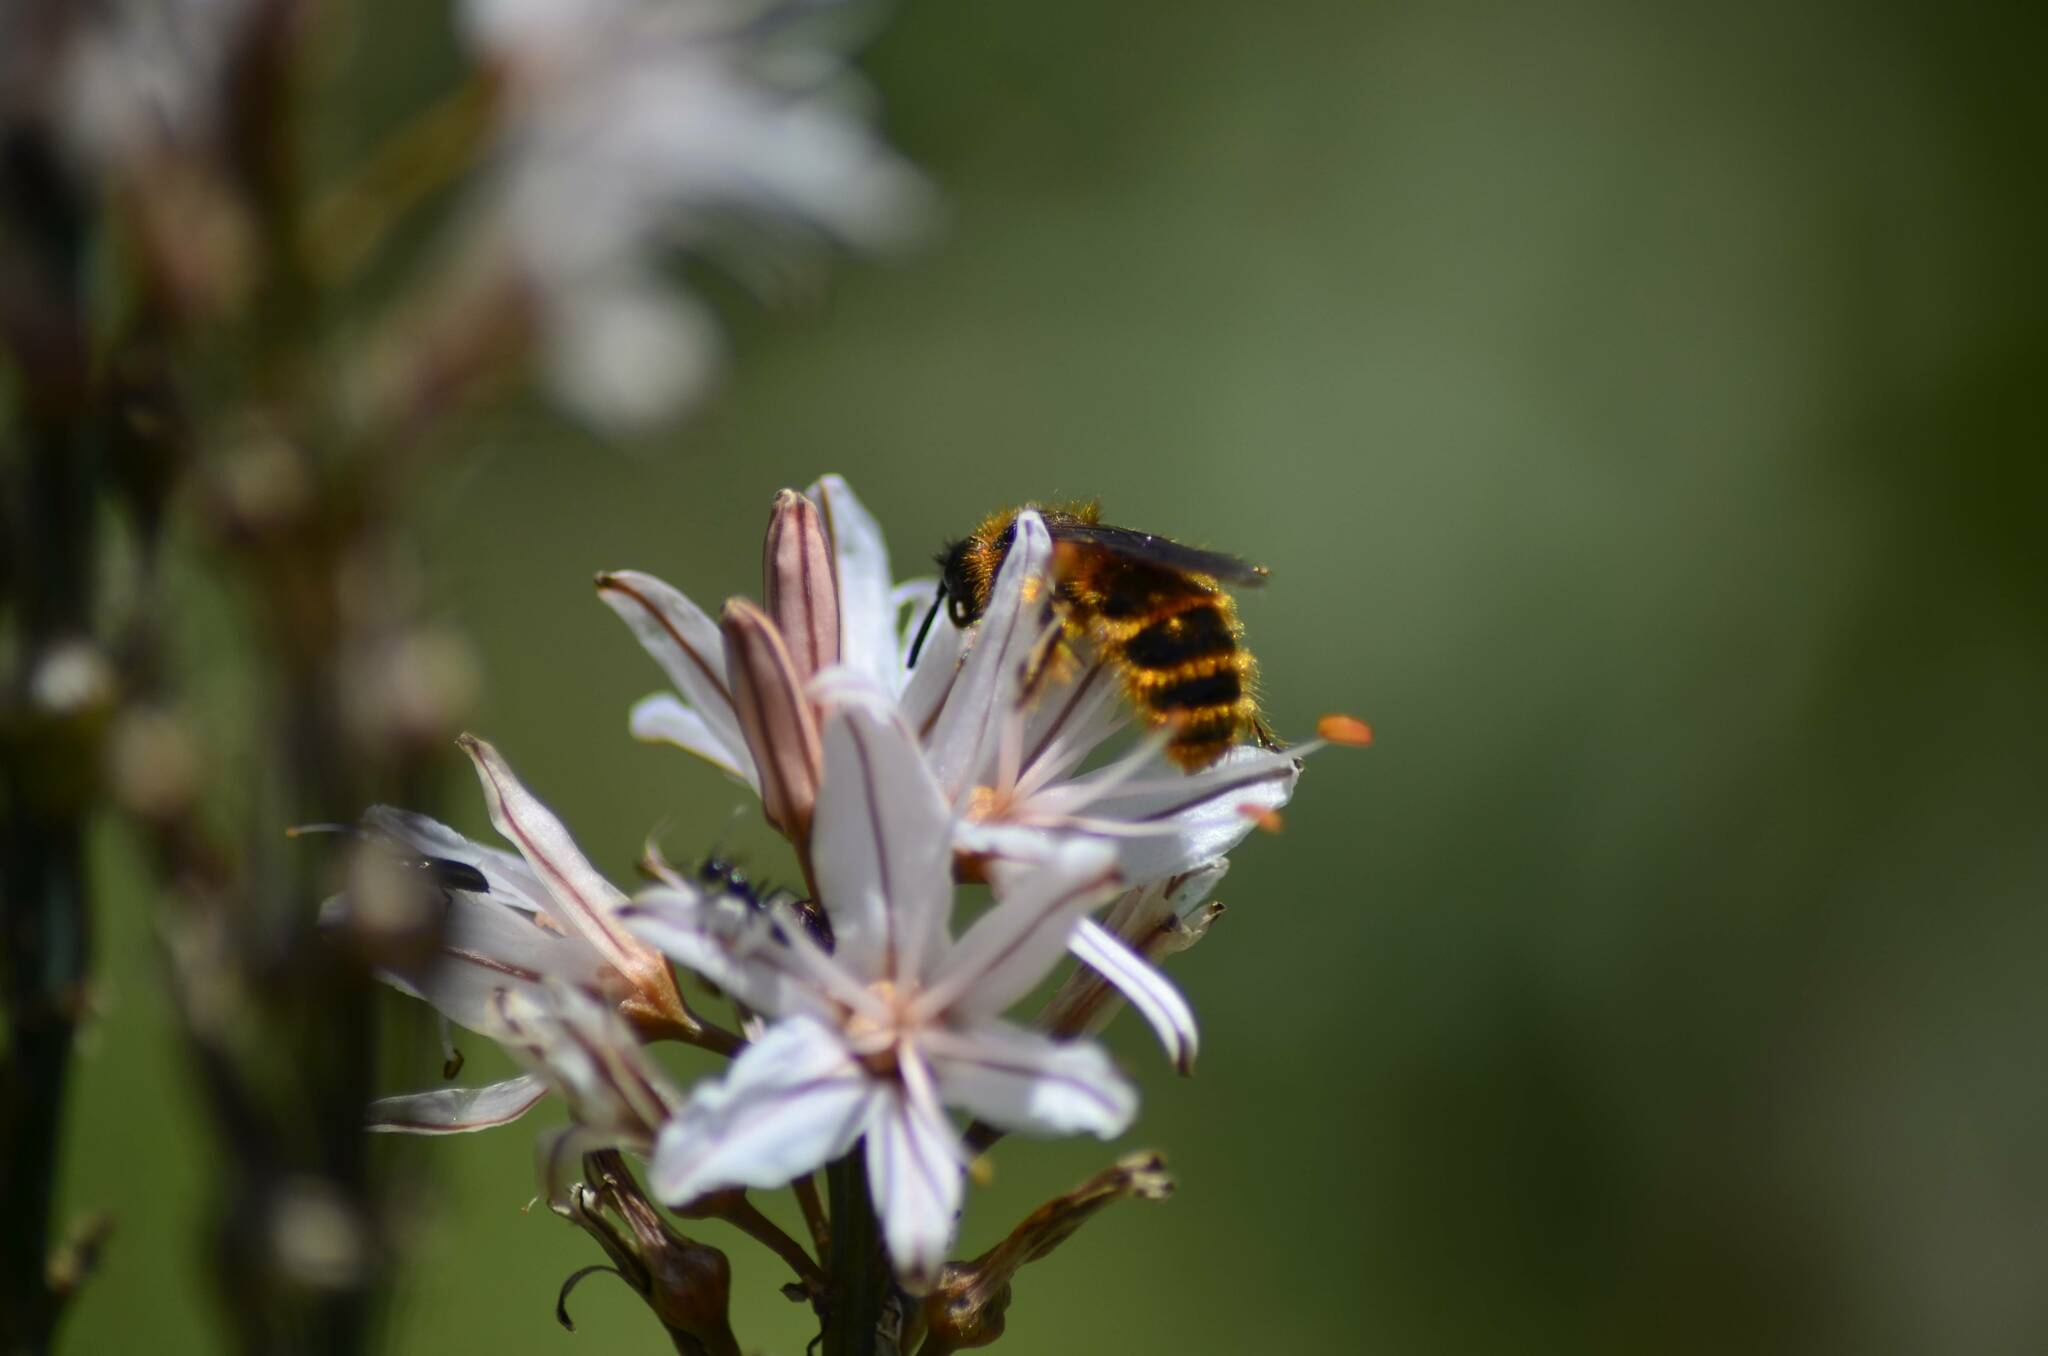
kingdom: Animalia
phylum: Arthropoda
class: Insecta
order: Hymenoptera
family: Scoliidae
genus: Dasyscolia
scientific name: Dasyscolia ciliata
